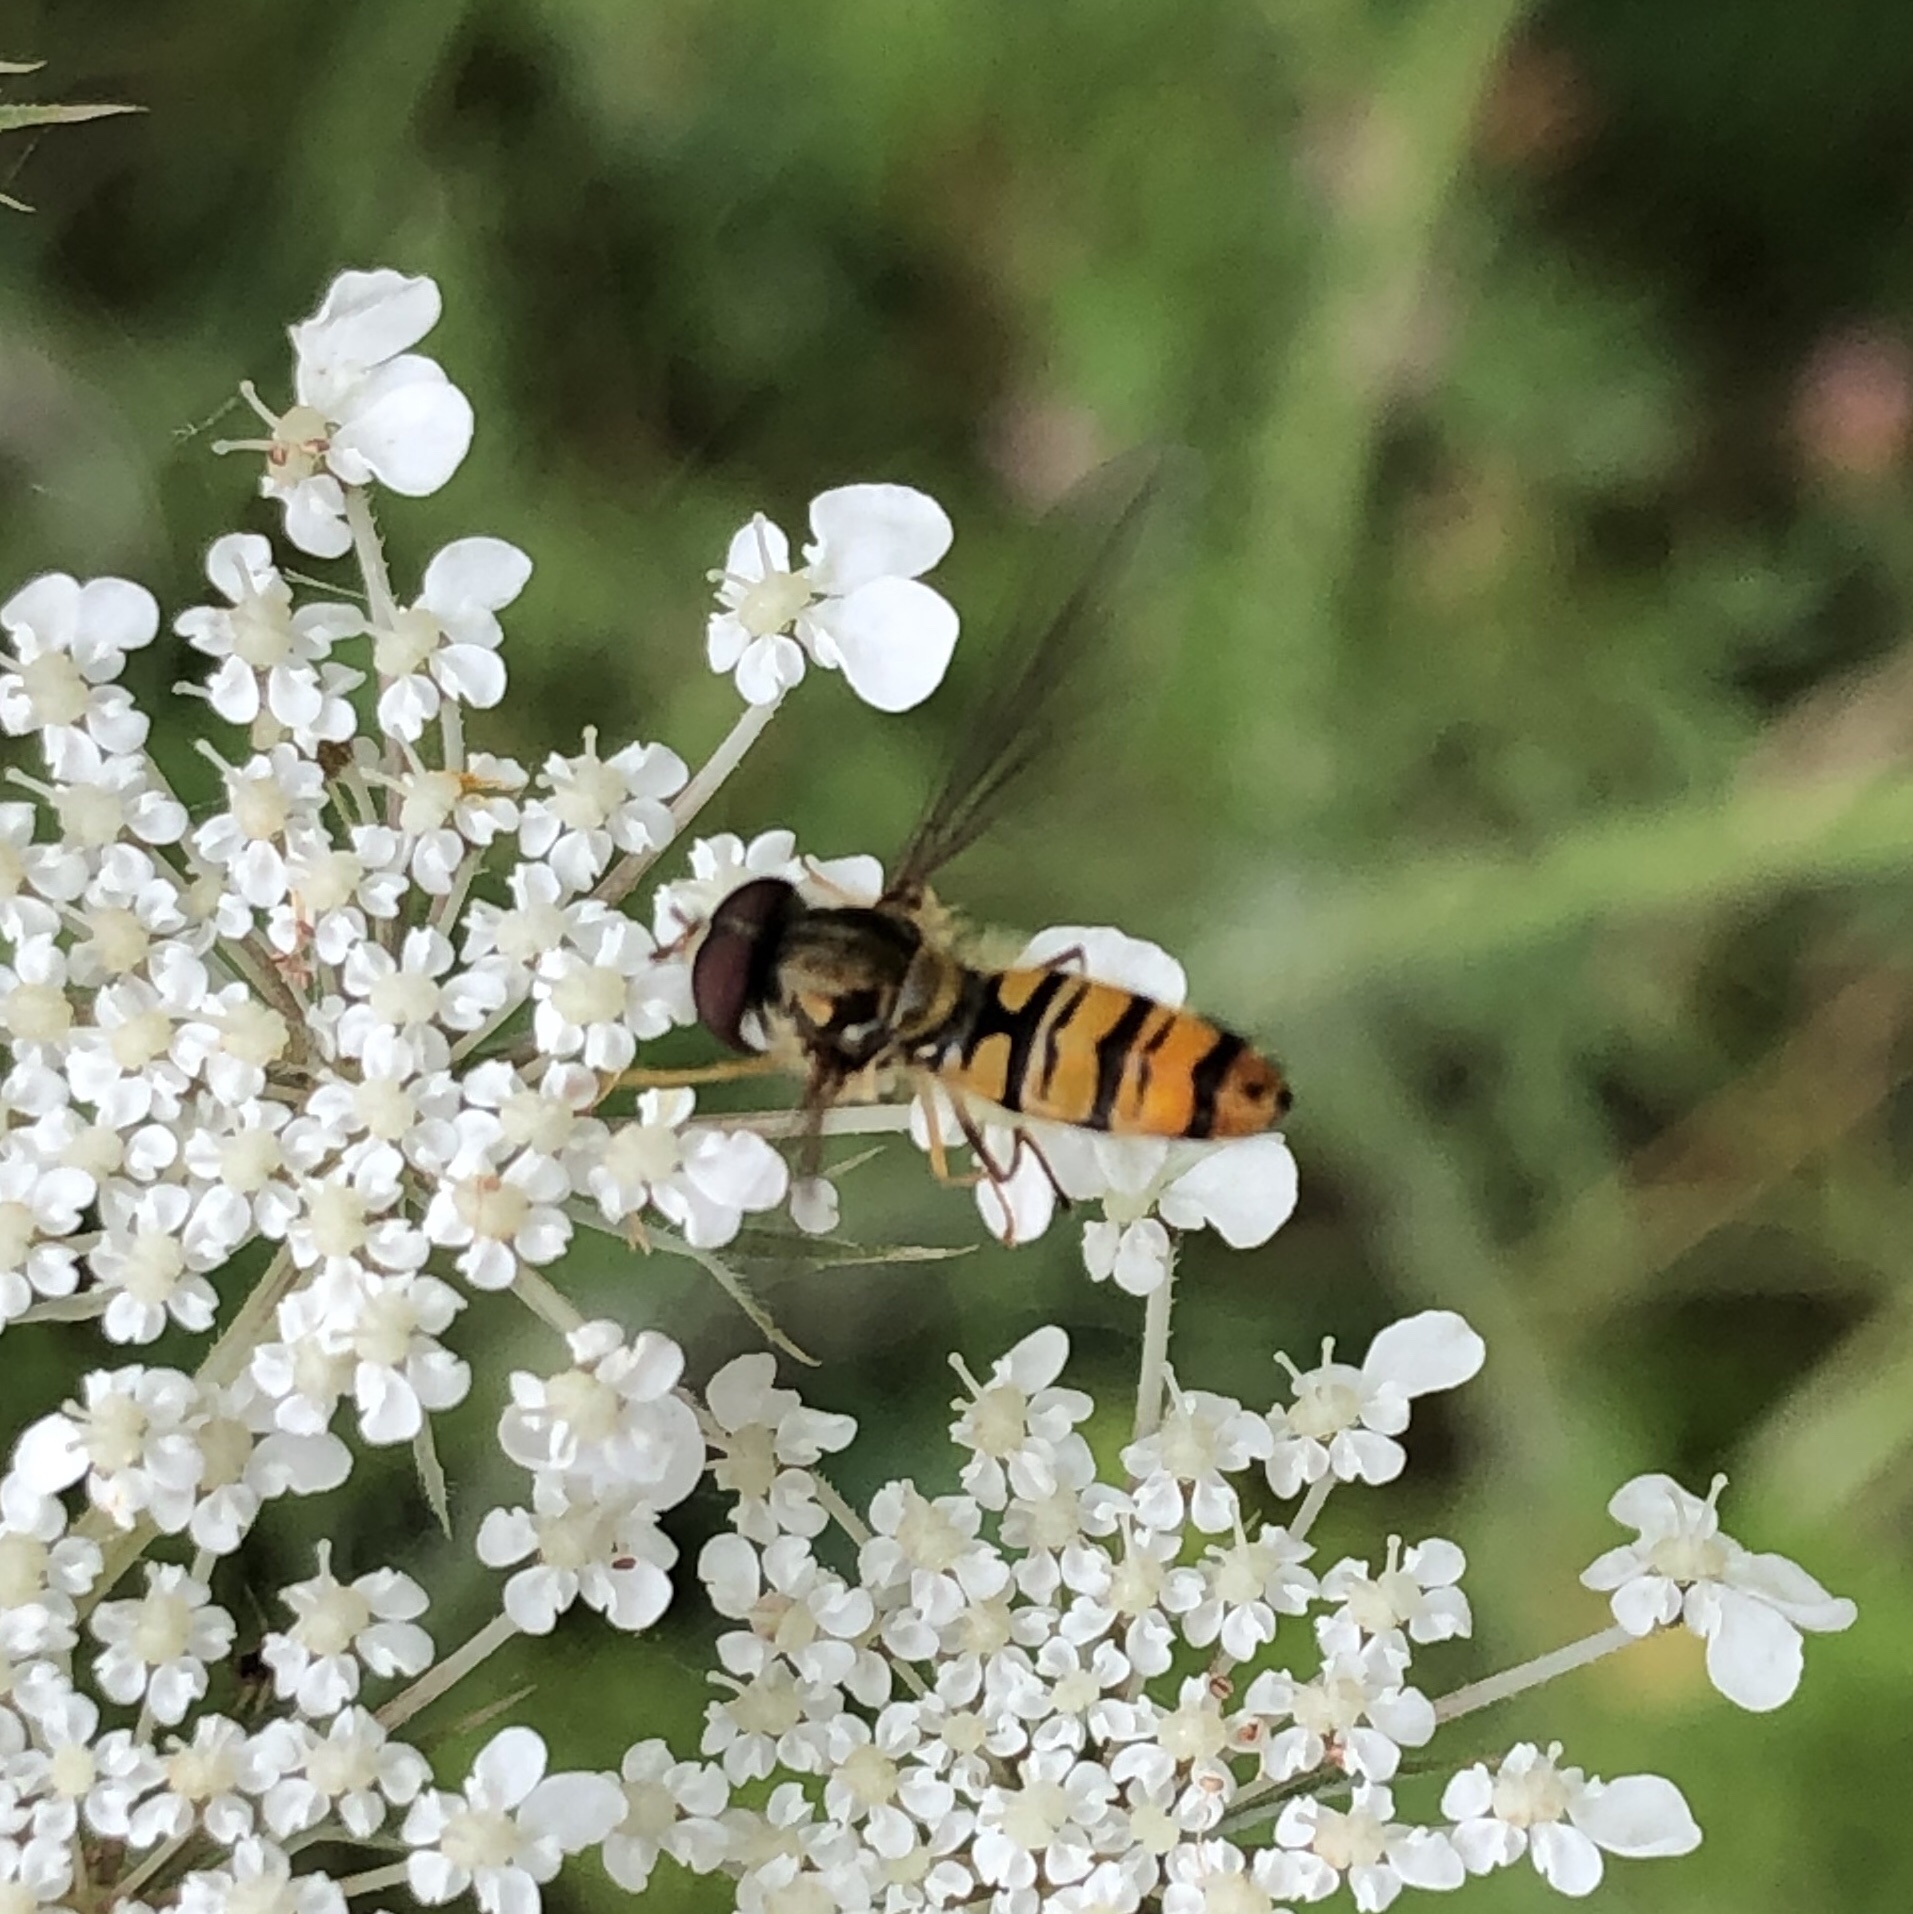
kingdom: Animalia
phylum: Arthropoda
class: Insecta
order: Diptera
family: Syrphidae
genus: Episyrphus
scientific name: Episyrphus balteatus
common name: Marmalade hoverfly
